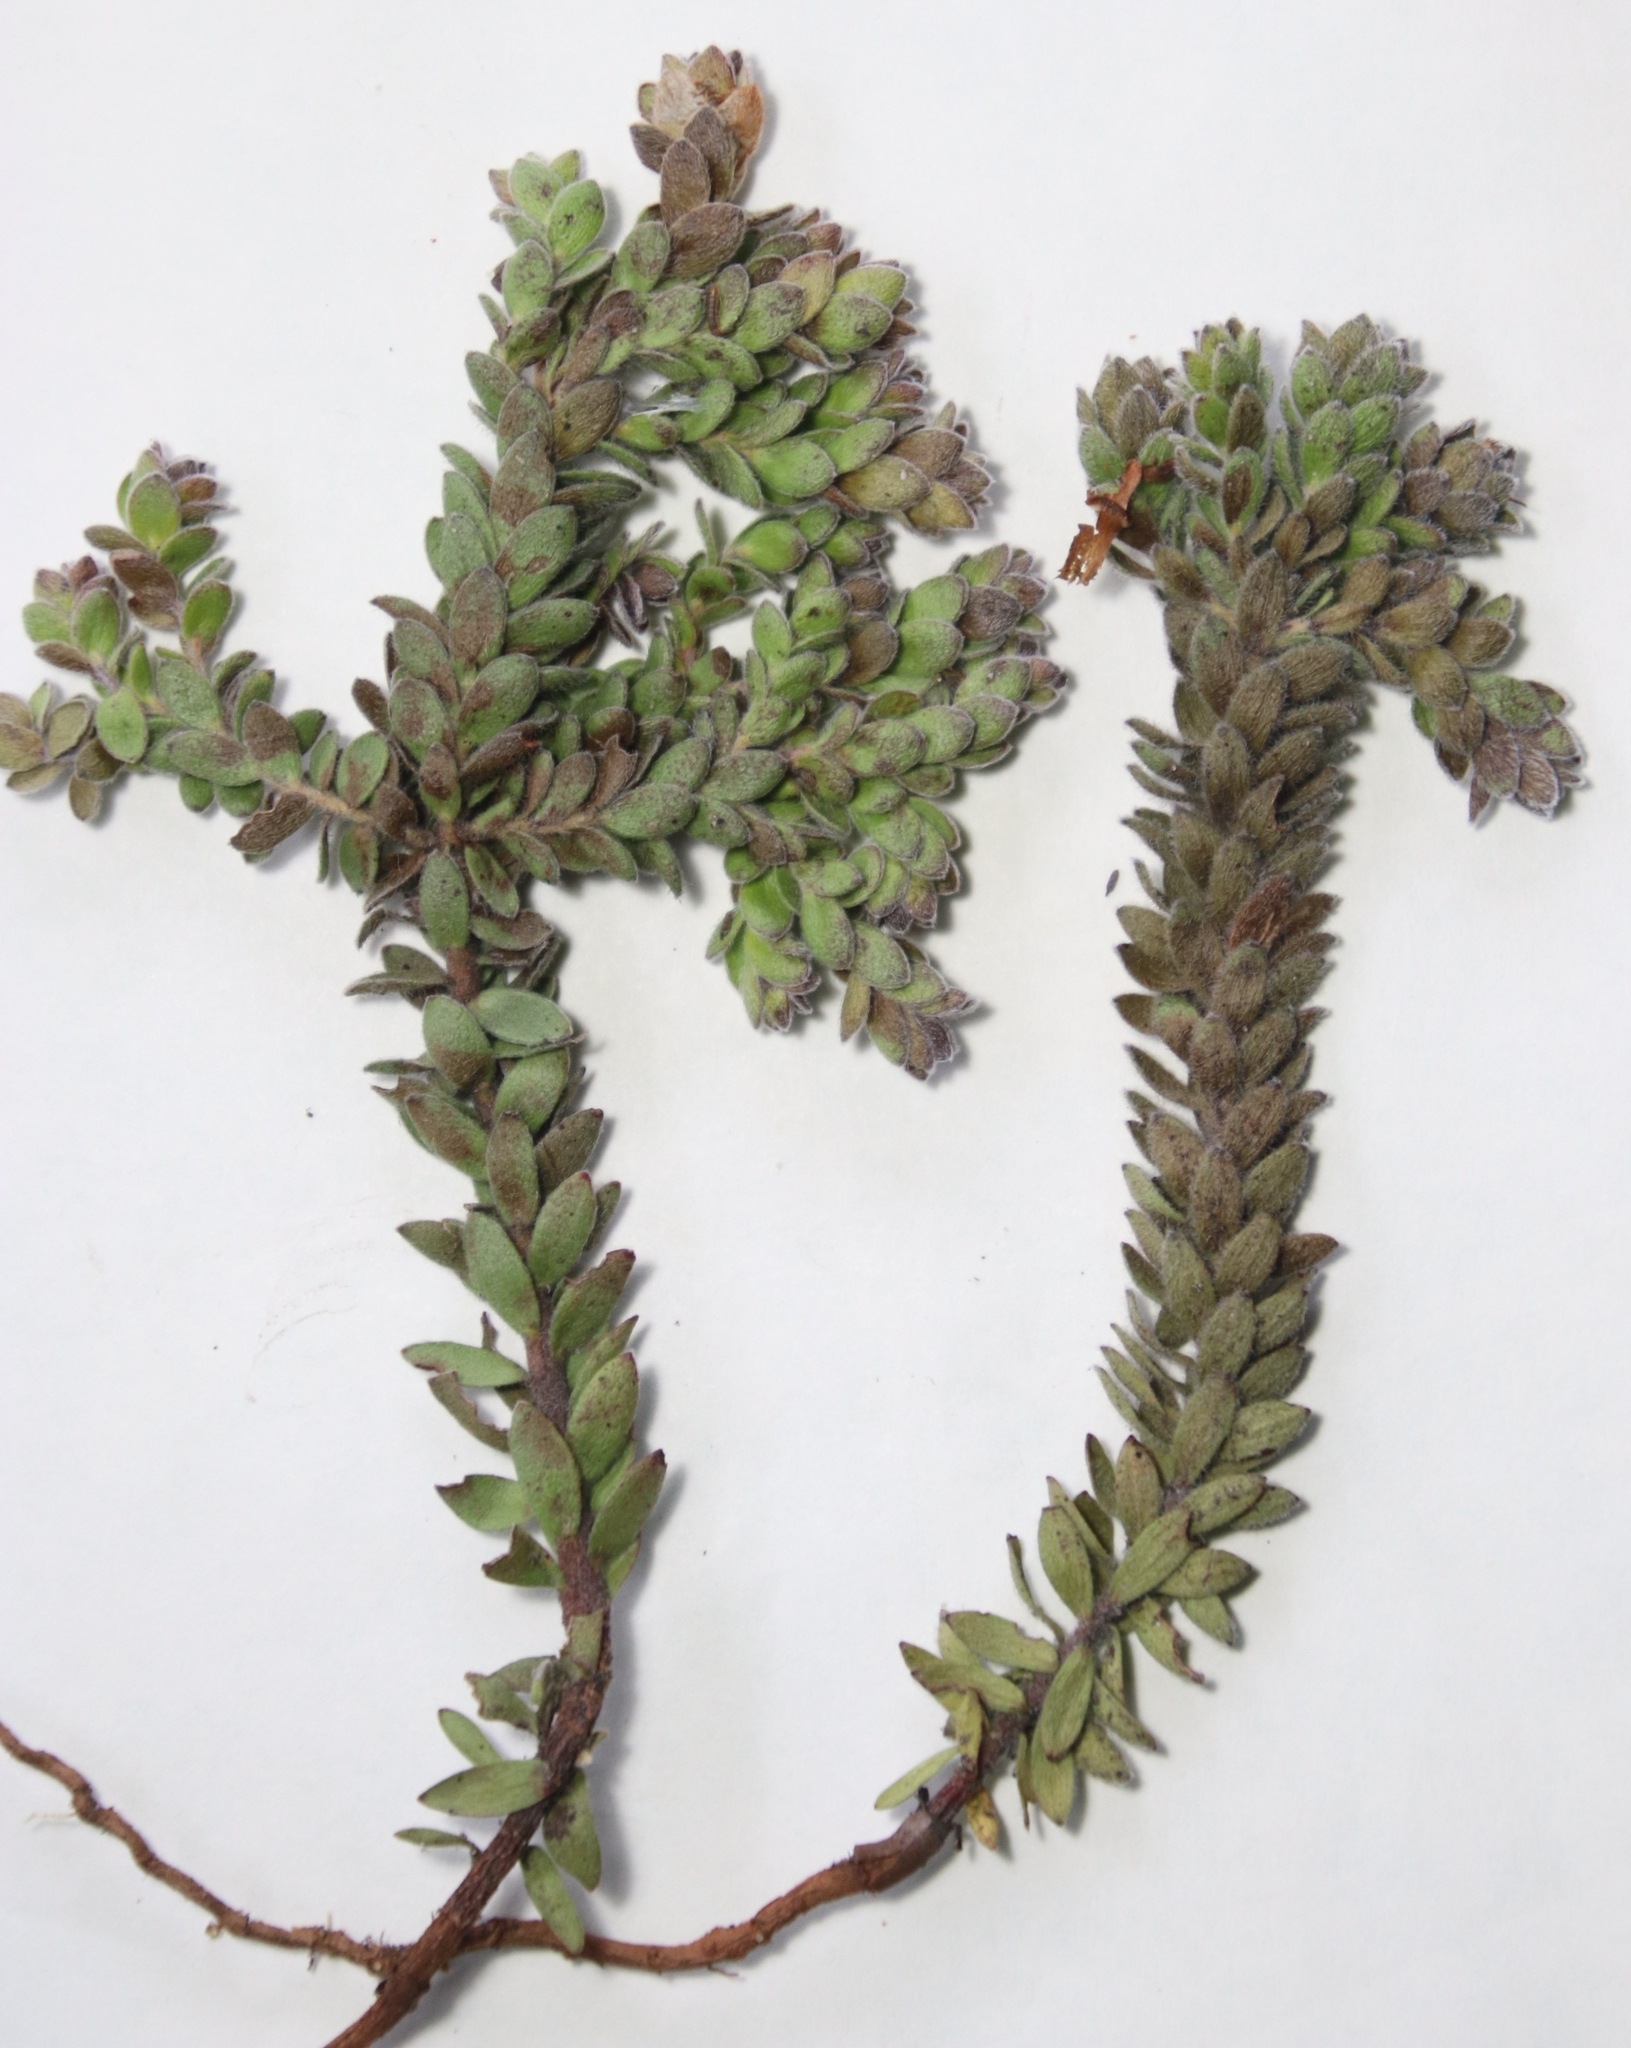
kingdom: Plantae
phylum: Tracheophyta
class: Magnoliopsida
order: Proteales
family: Proteaceae
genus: Diastella
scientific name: Diastella divaricata
